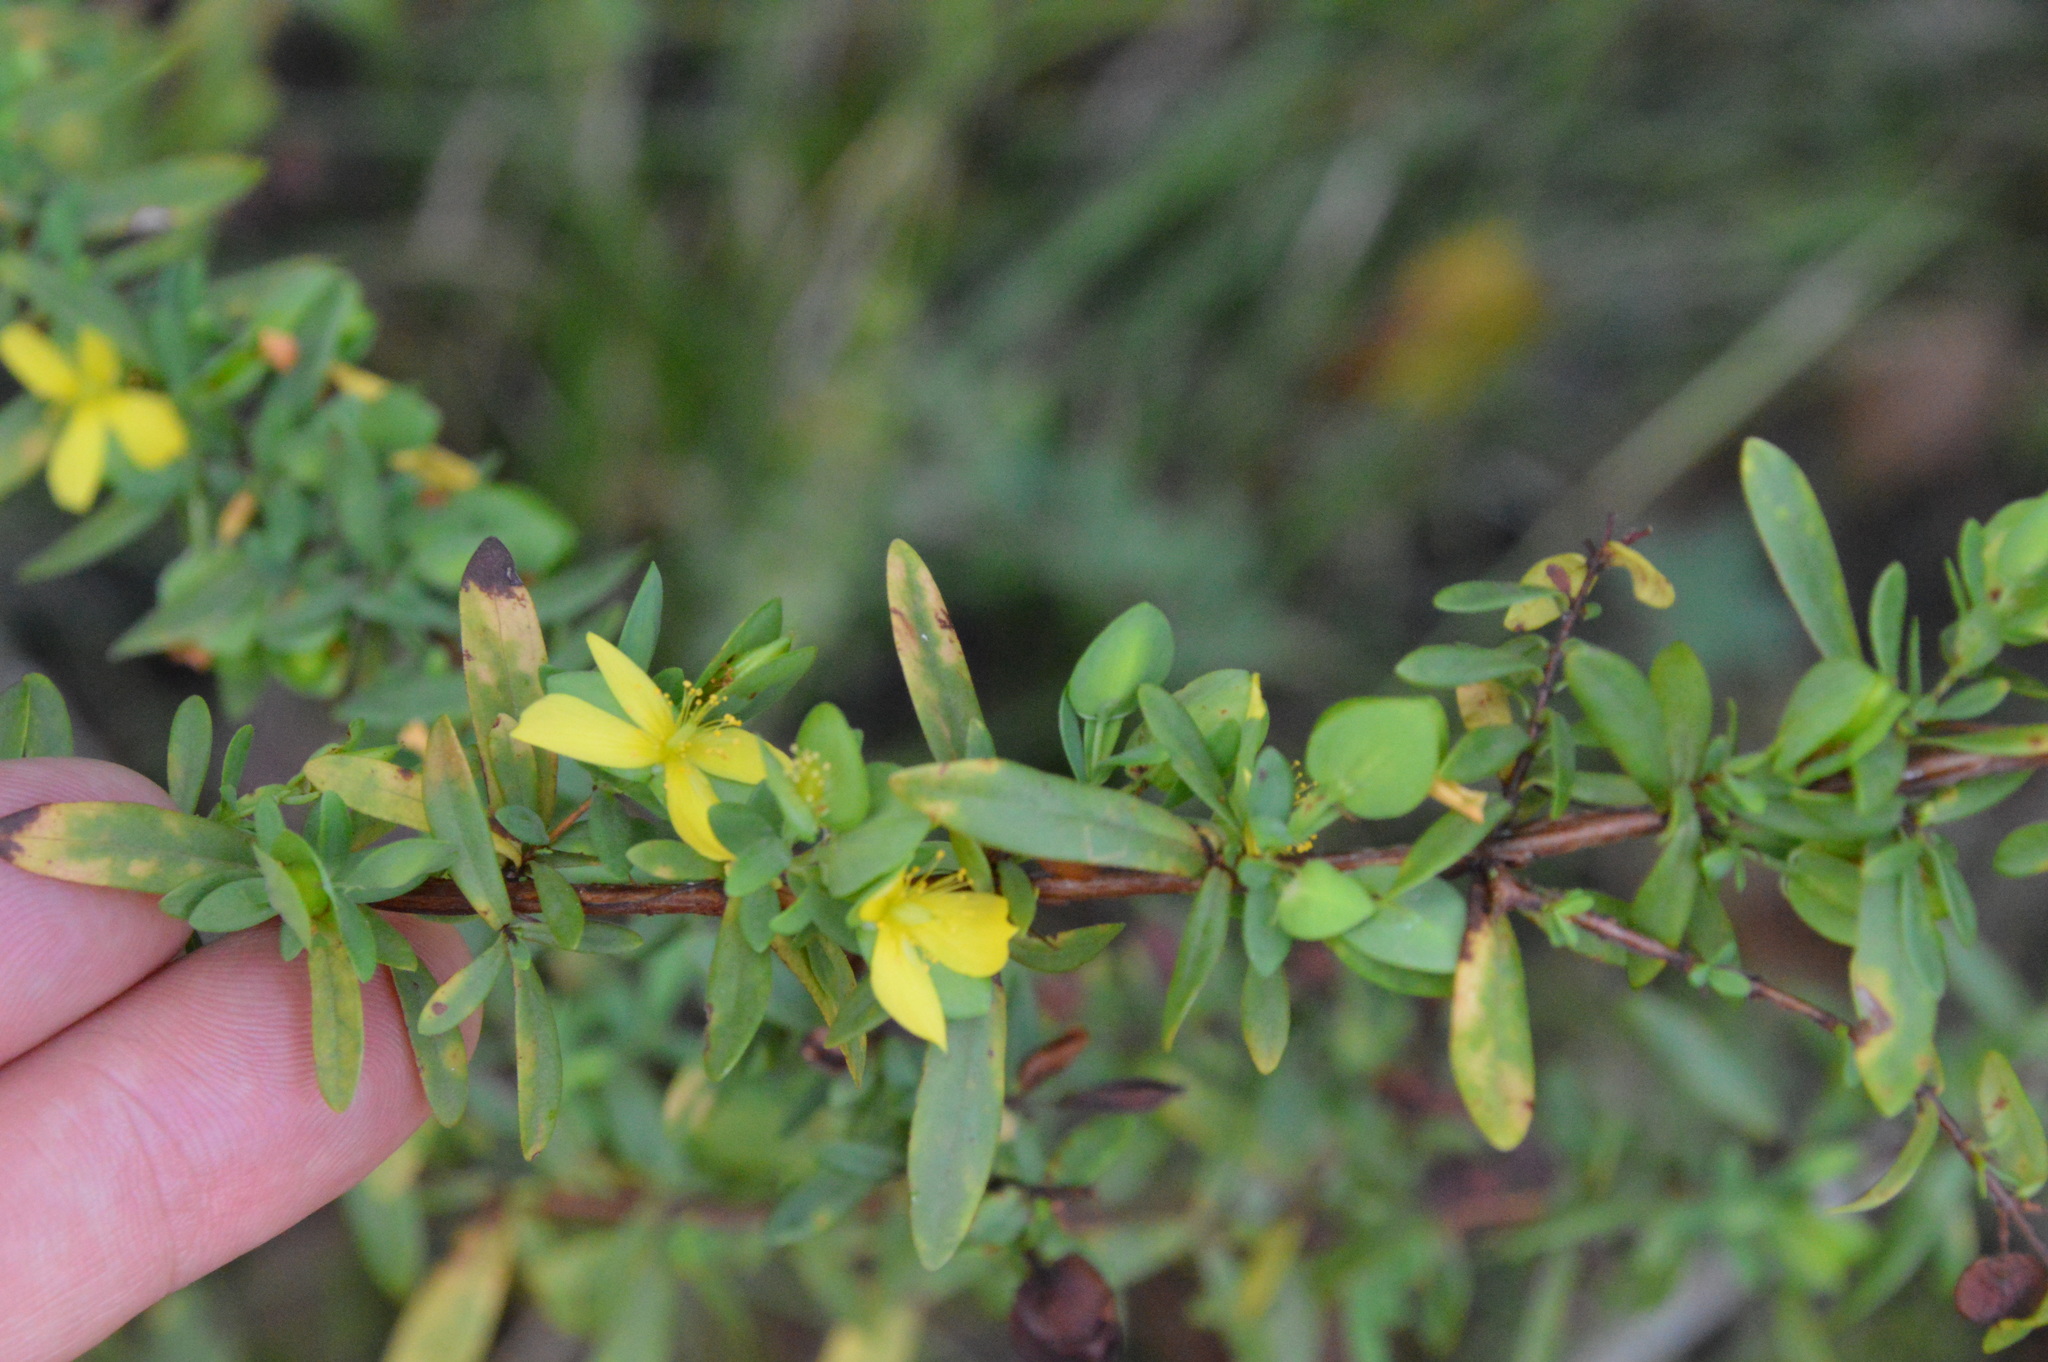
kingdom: Plantae
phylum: Tracheophyta
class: Magnoliopsida
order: Malpighiales
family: Hypericaceae
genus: Hypericum
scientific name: Hypericum hypericoides
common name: St. andrew's cross
